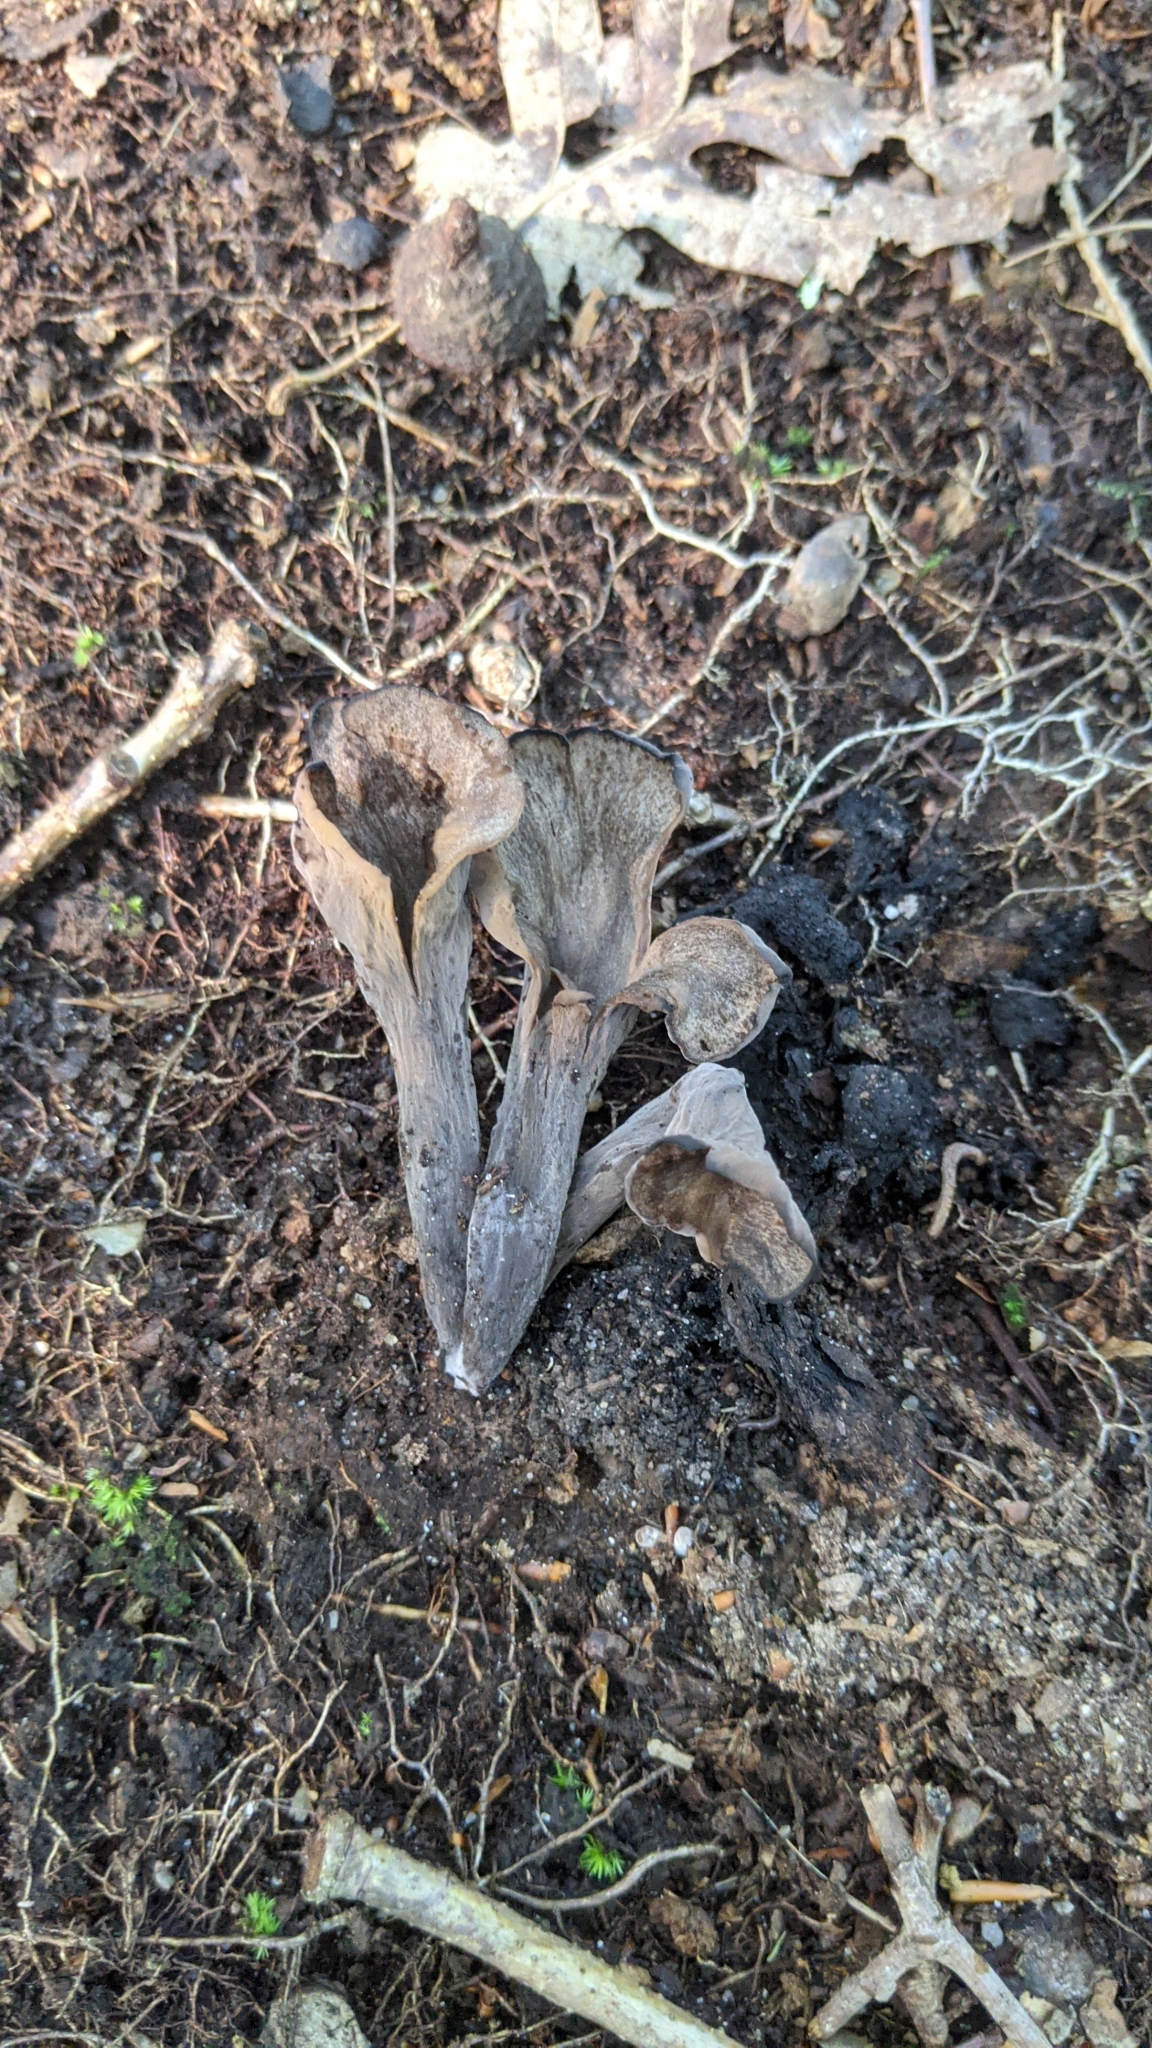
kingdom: Fungi
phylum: Basidiomycota
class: Agaricomycetes
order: Cantharellales
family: Hydnaceae
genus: Craterellus
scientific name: Craterellus cornucopioides
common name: Horn of plenty
